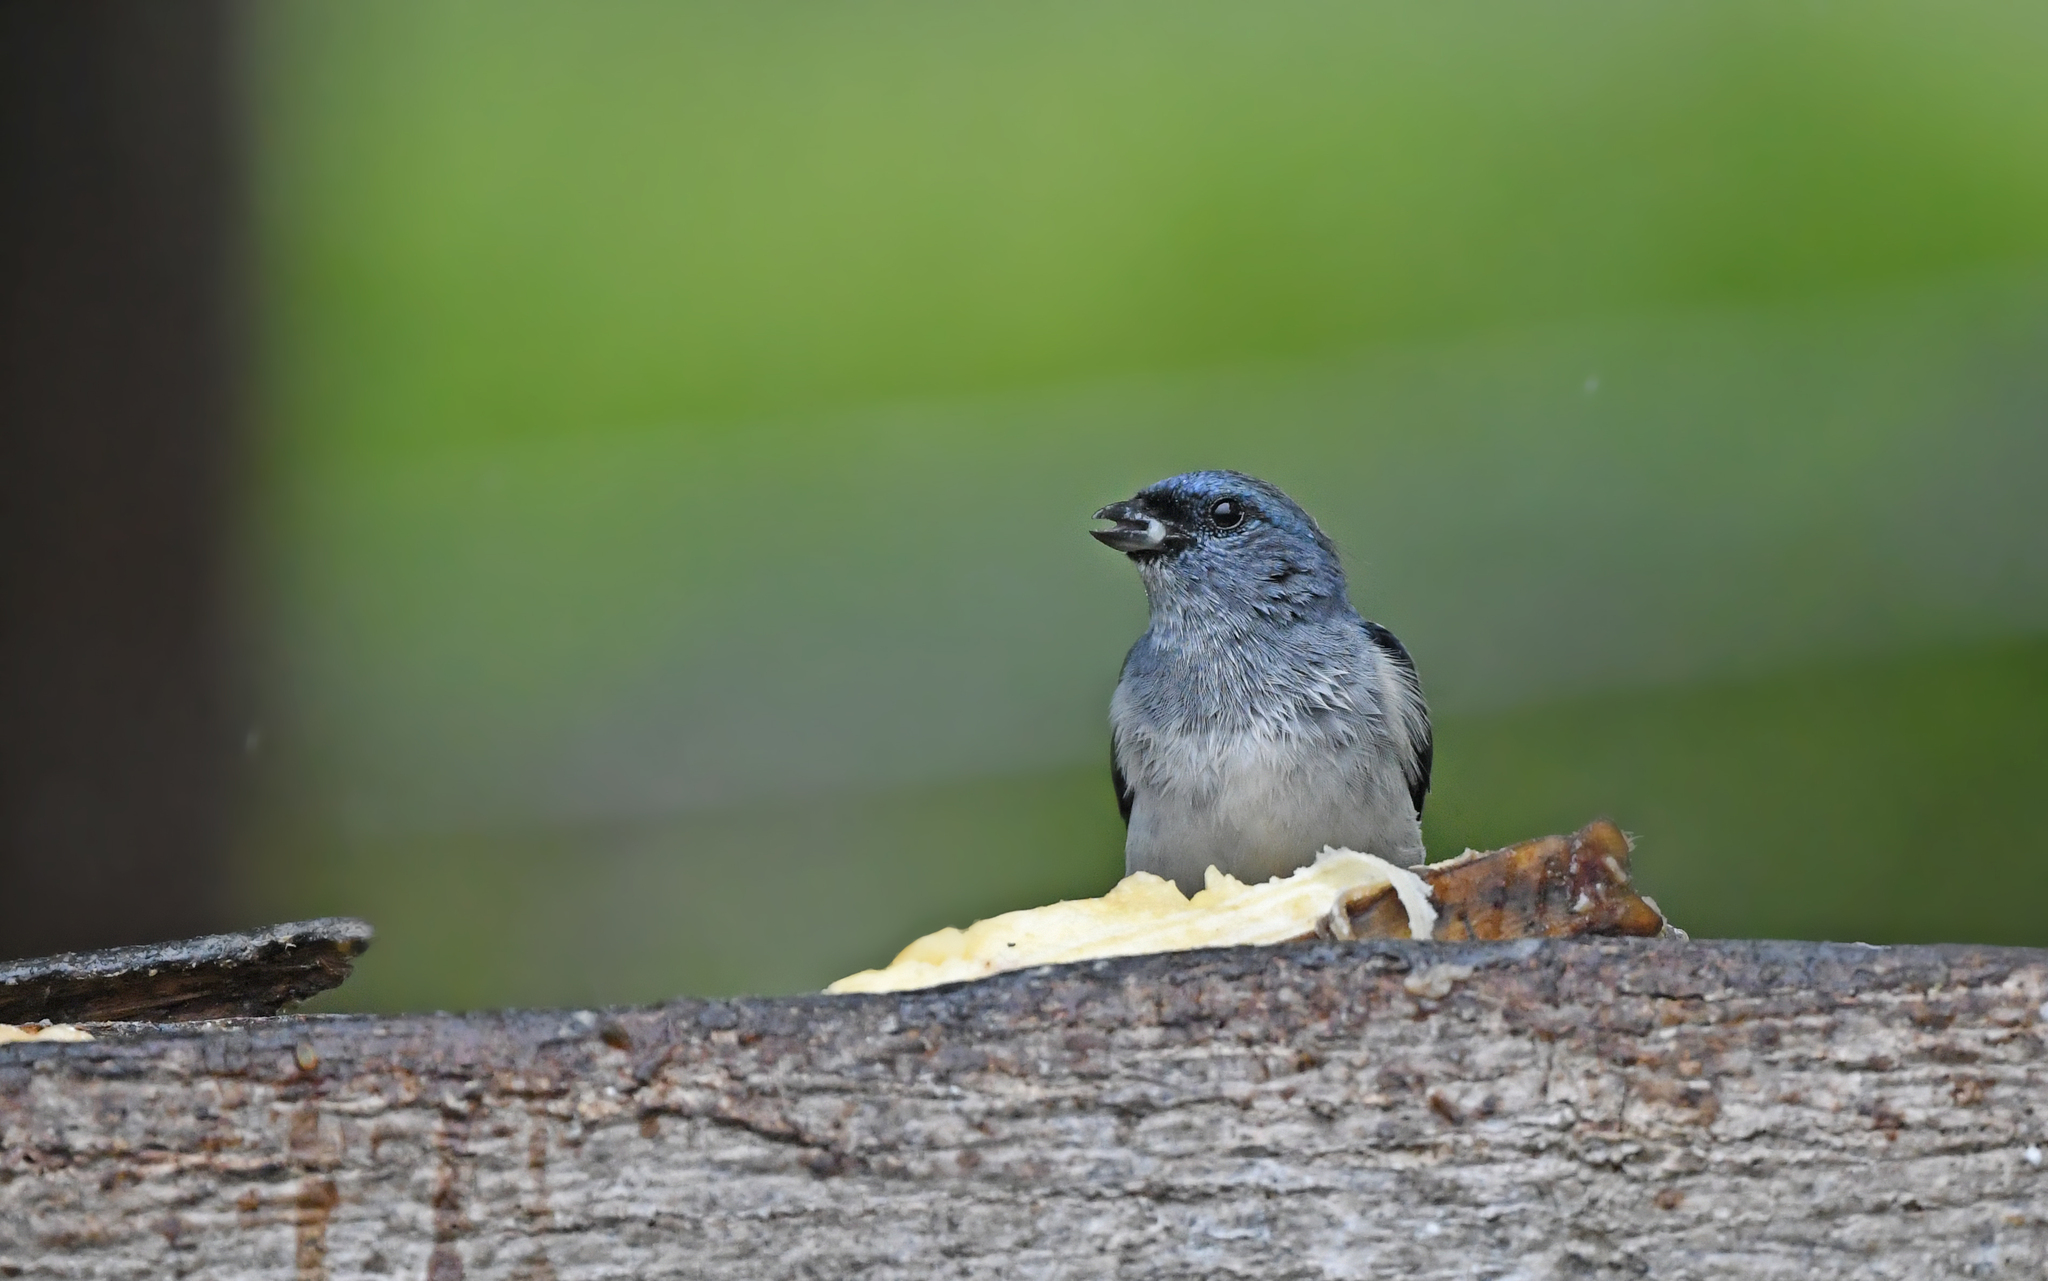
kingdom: Animalia
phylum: Chordata
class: Aves
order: Passeriformes
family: Thraupidae
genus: Tangara
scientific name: Tangara inornata
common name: Plain-colored tanager
